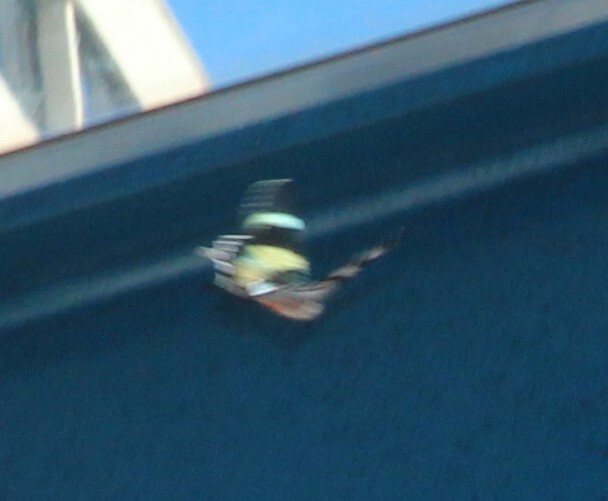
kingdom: Animalia
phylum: Arthropoda
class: Insecta
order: Lepidoptera
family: Uraniidae
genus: Alcides
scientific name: Alcides metaurus
